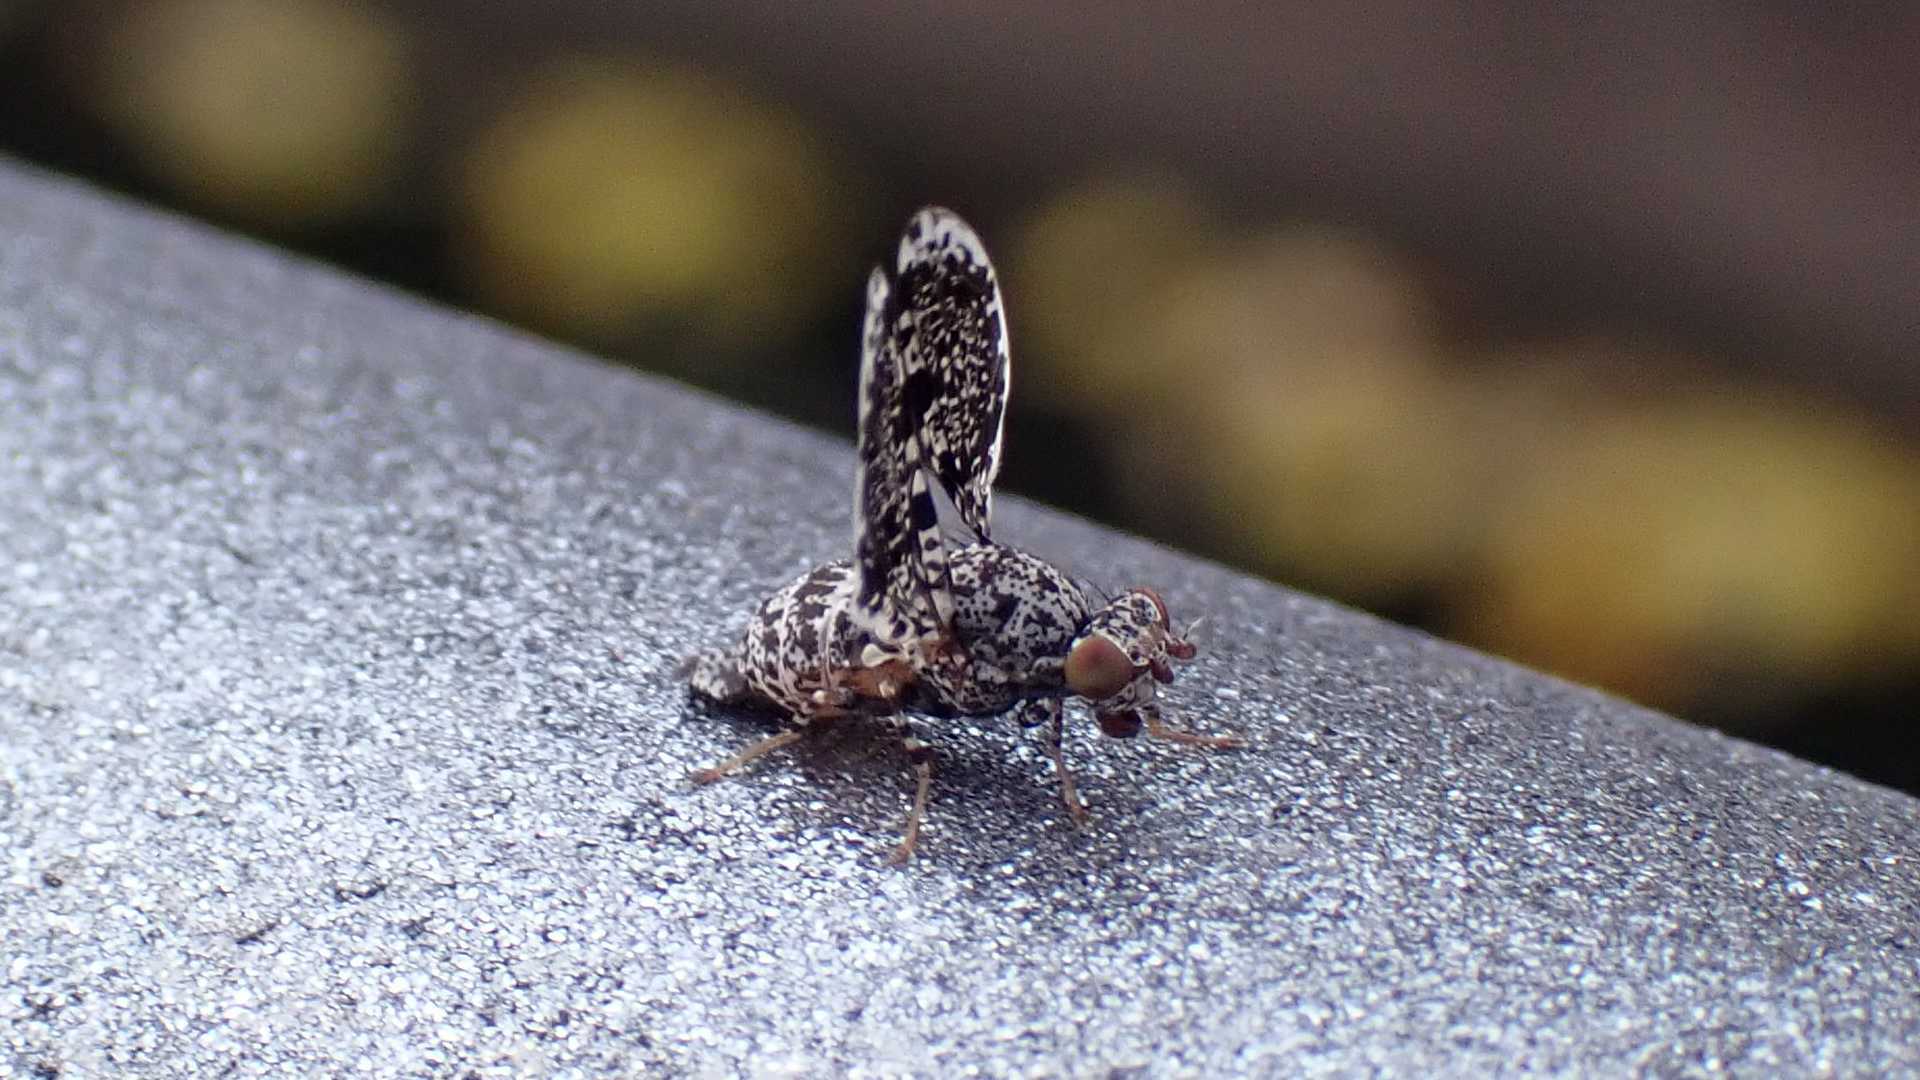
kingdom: Animalia
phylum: Arthropoda
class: Insecta
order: Diptera
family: Ulidiidae
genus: Callopistromyia
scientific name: Callopistromyia annulipes
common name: Peacock fly
